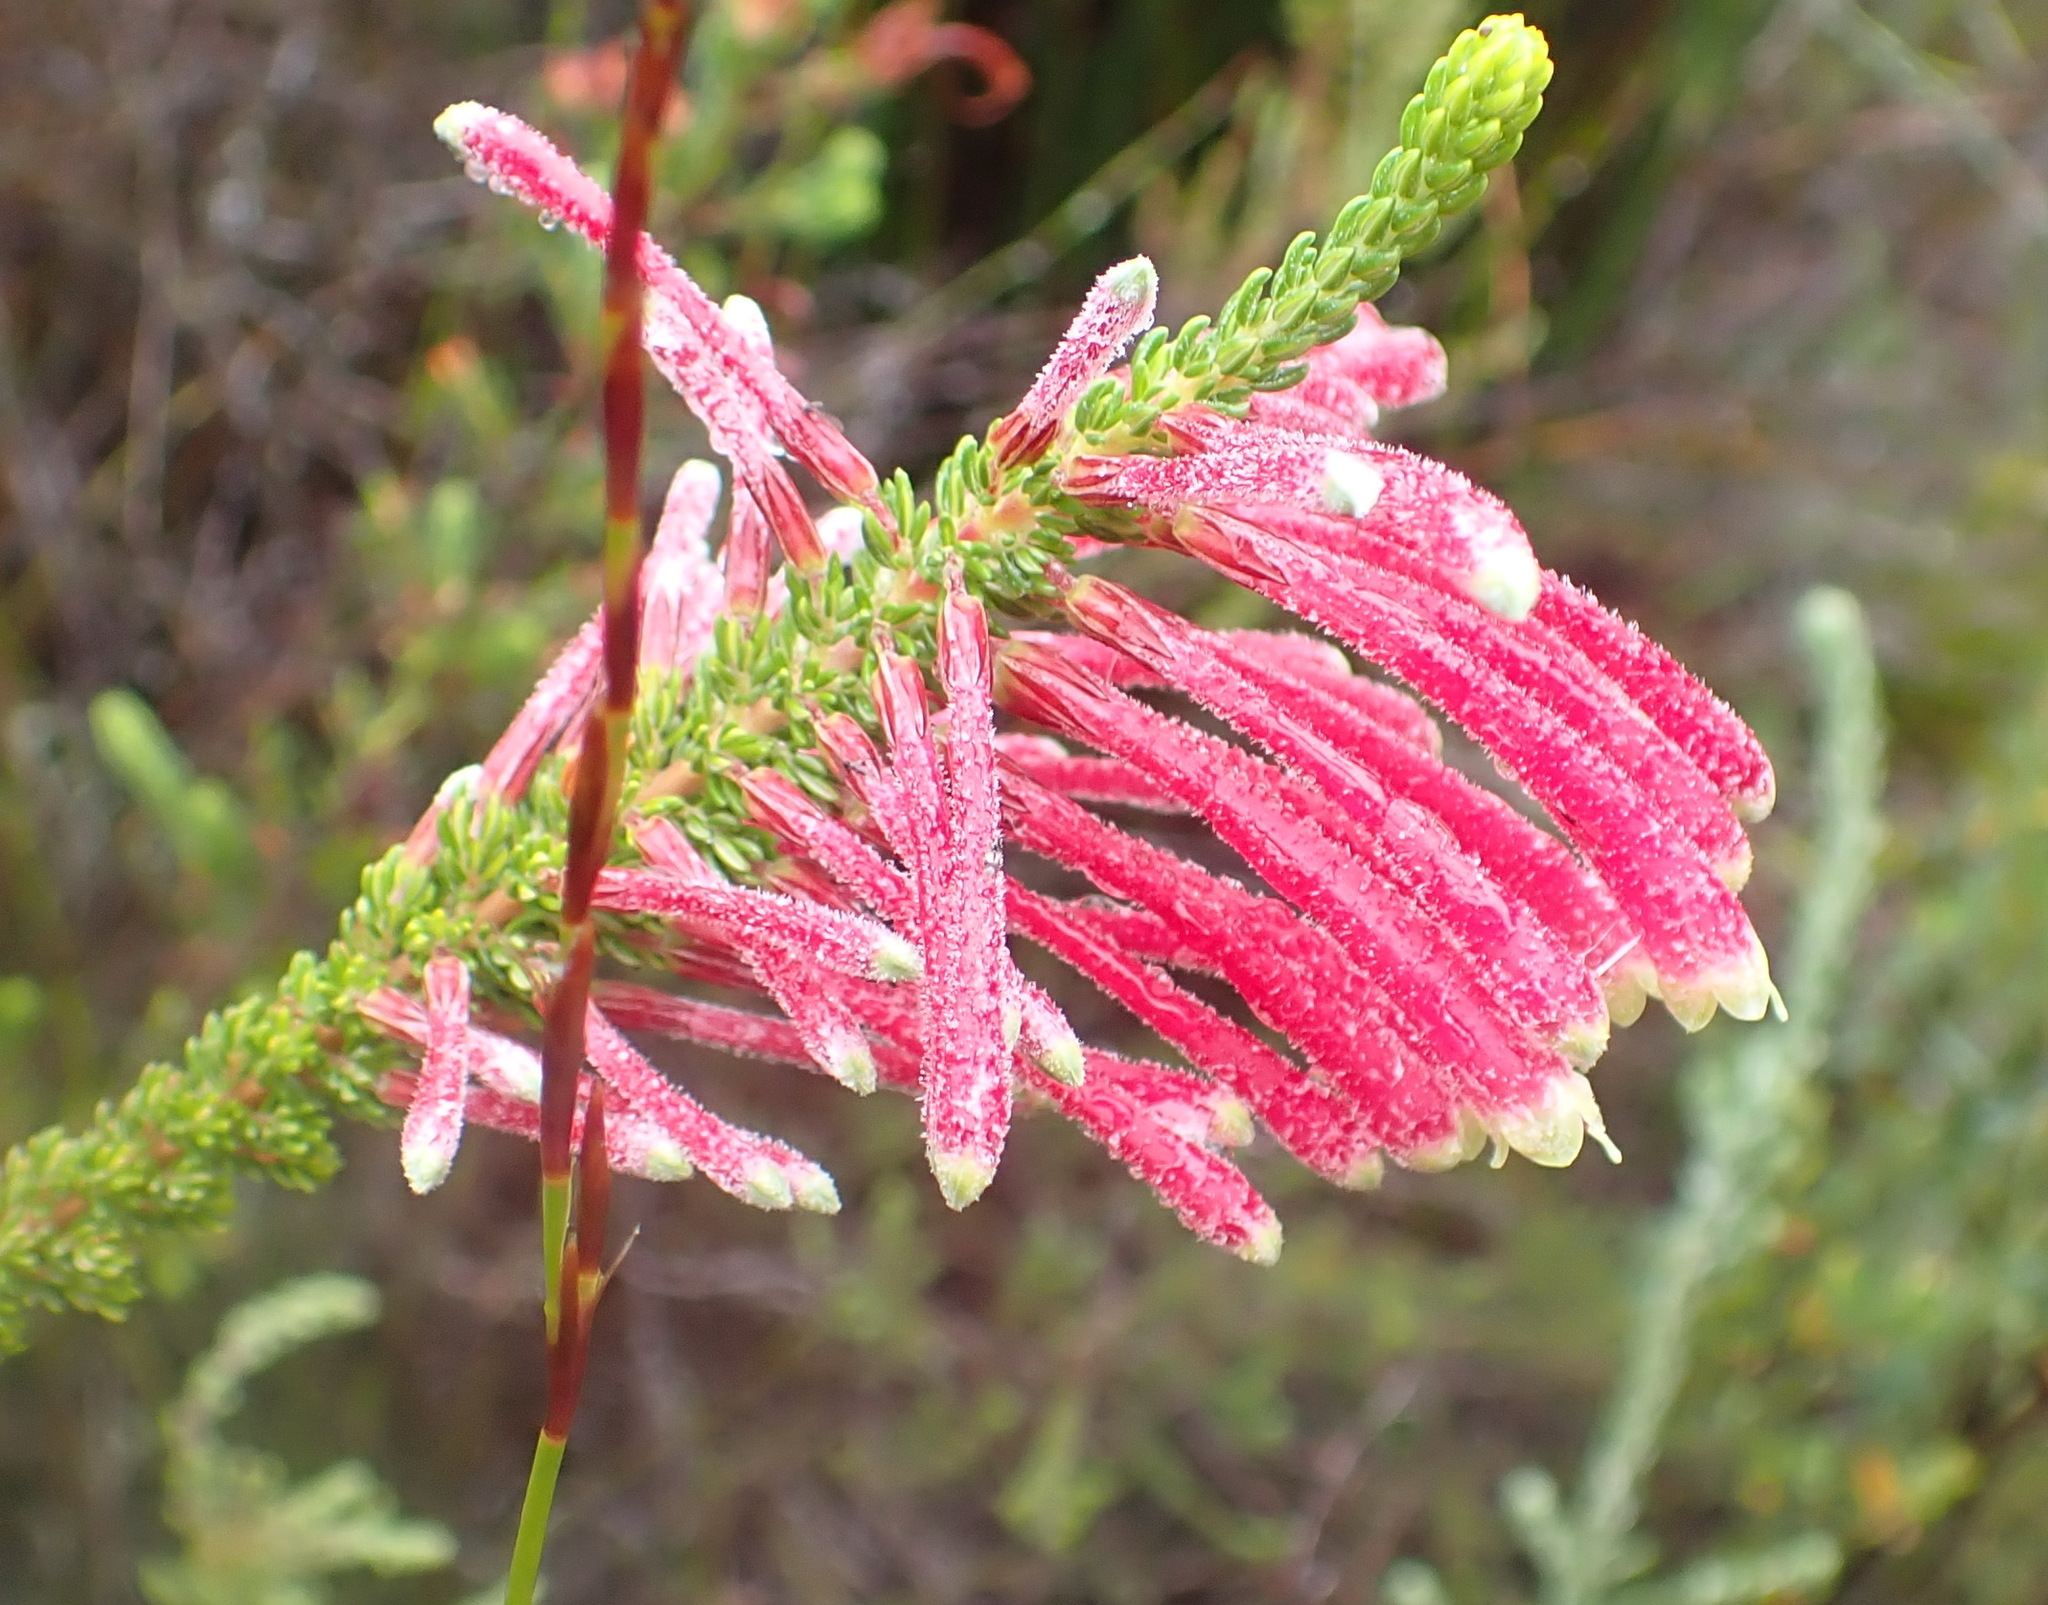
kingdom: Plantae
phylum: Tracheophyta
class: Magnoliopsida
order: Ericales
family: Ericaceae
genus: Erica
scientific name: Erica densifolia
